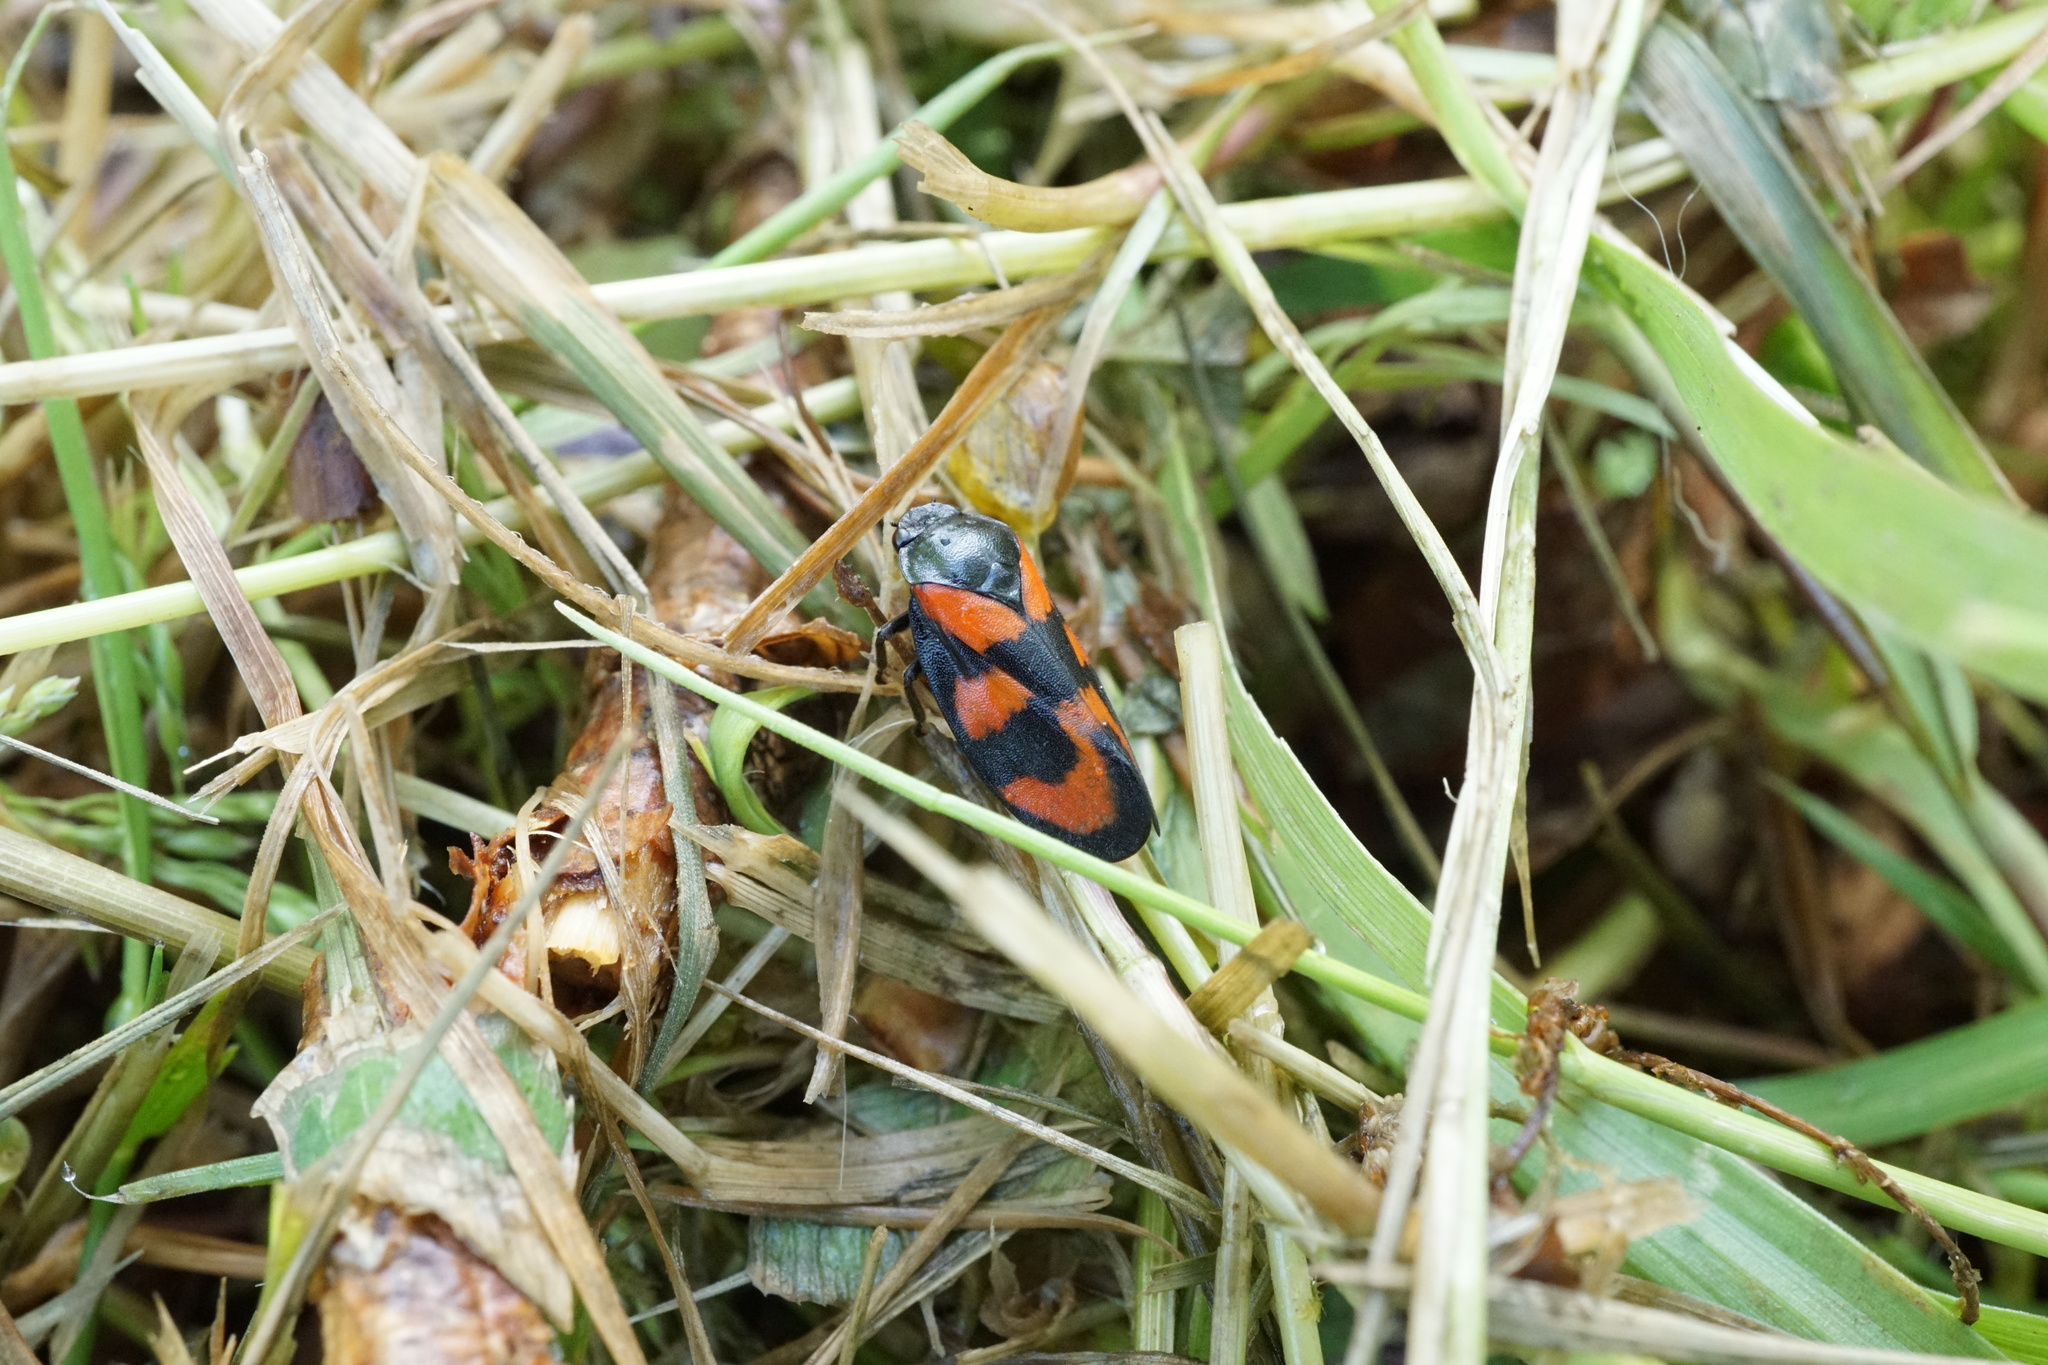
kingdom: Animalia
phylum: Arthropoda
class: Insecta
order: Hemiptera
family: Cercopidae
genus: Cercopis
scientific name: Cercopis vulnerata
